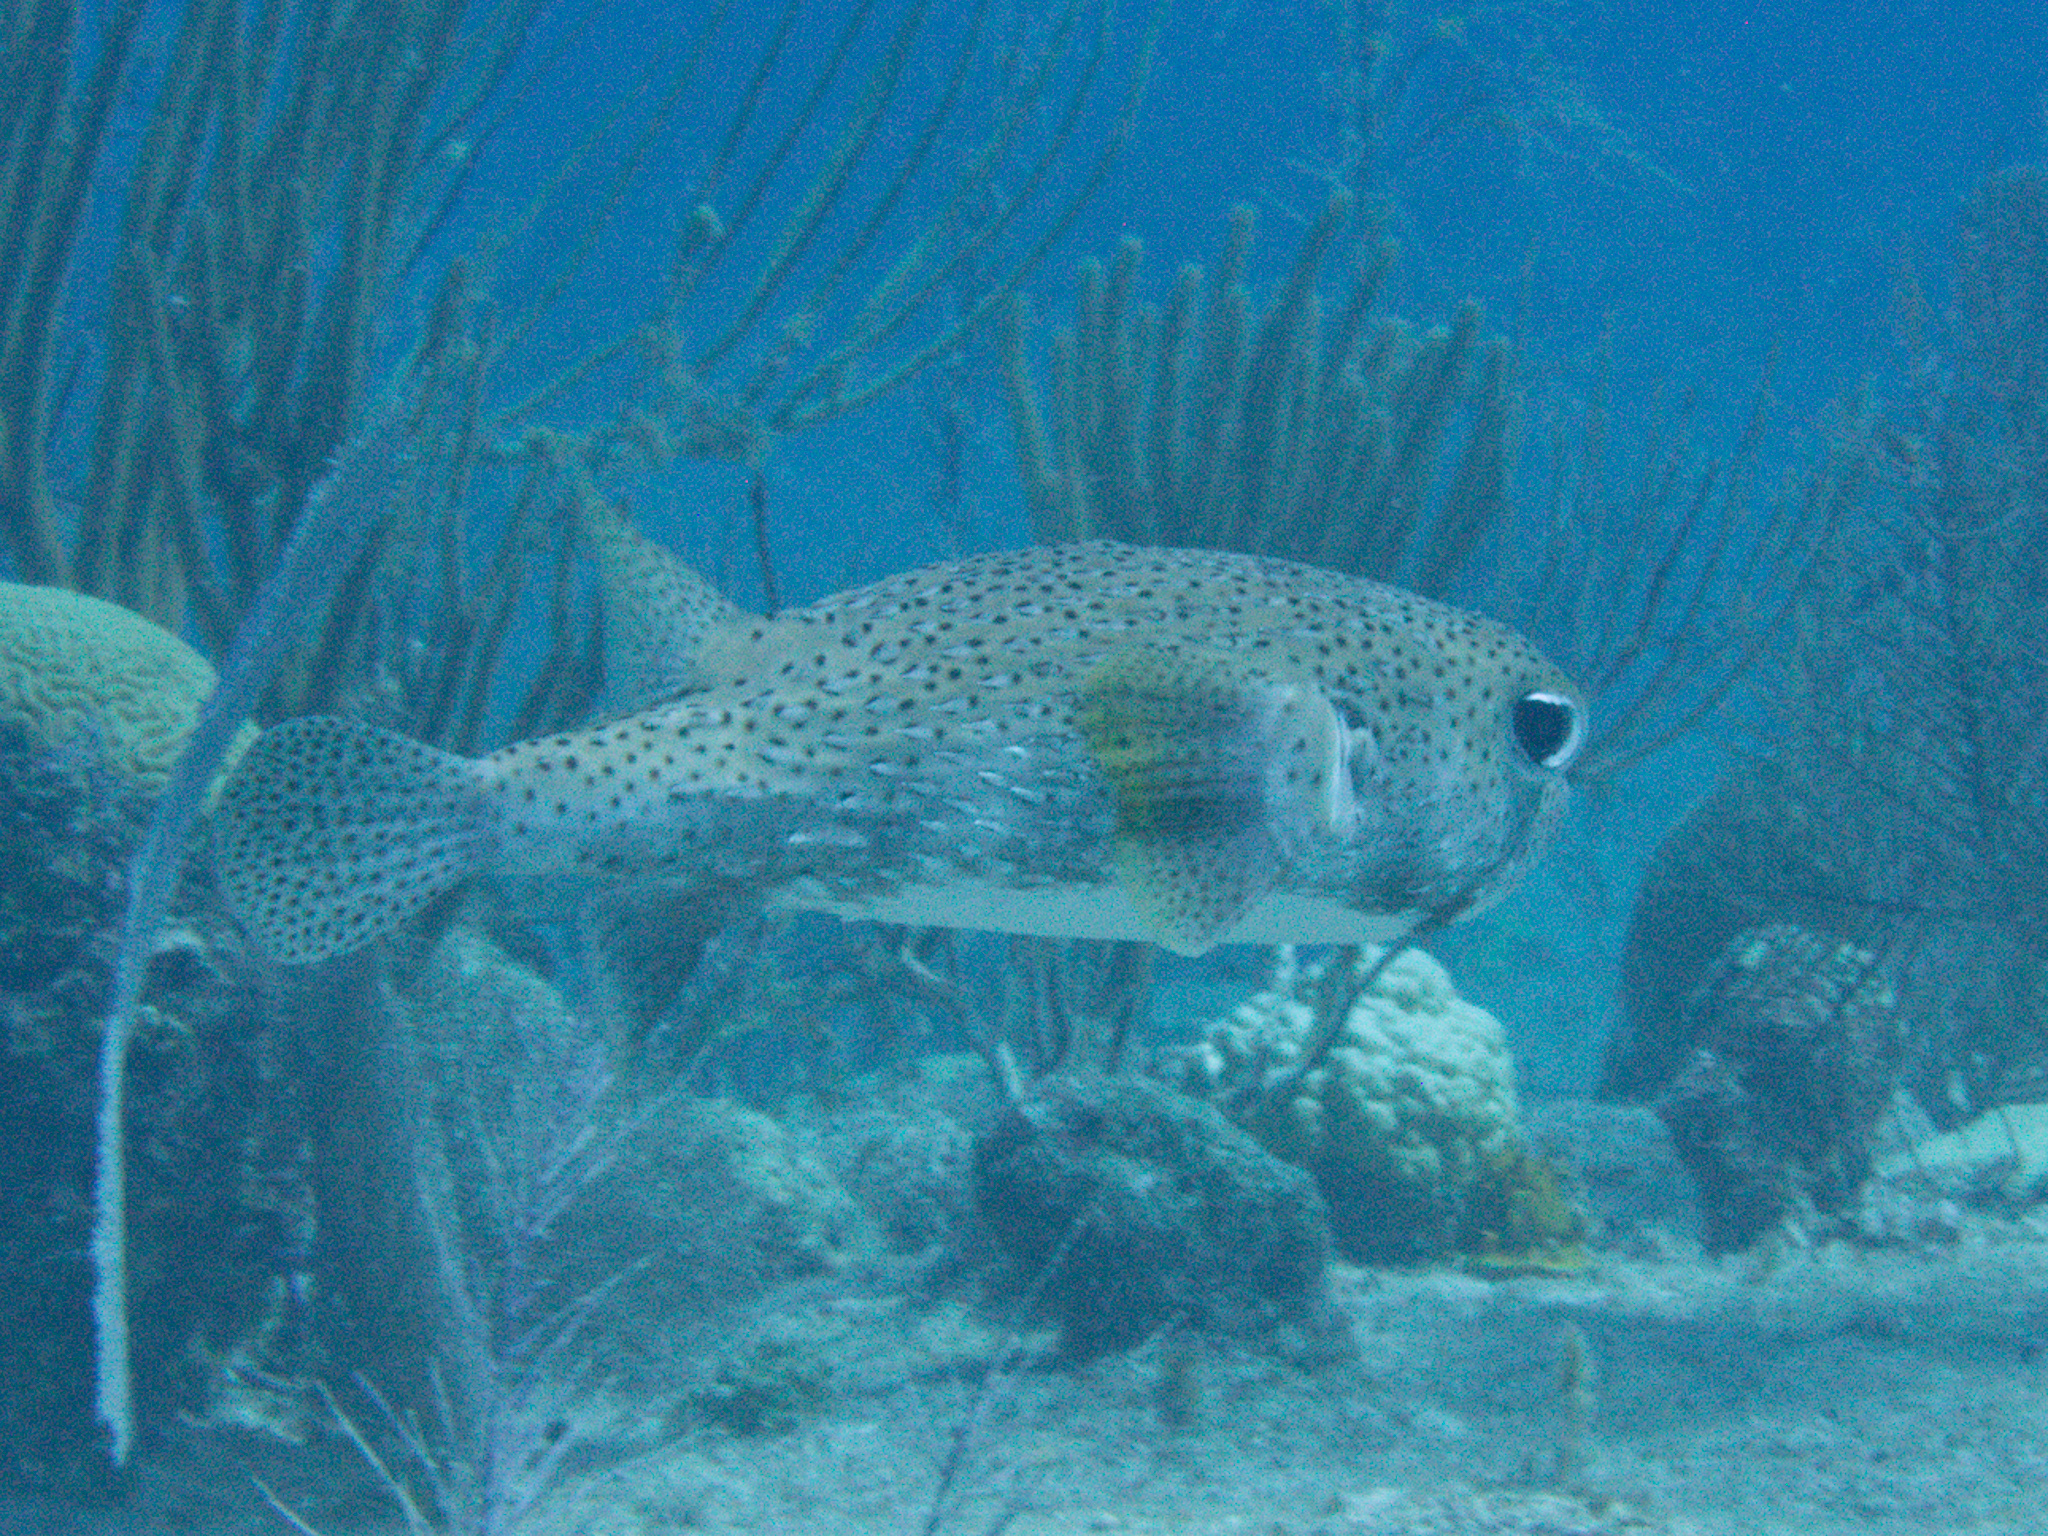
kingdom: Animalia
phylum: Chordata
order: Tetraodontiformes
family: Diodontidae
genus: Diodon
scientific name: Diodon hystrix
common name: Giant porcupinefish
